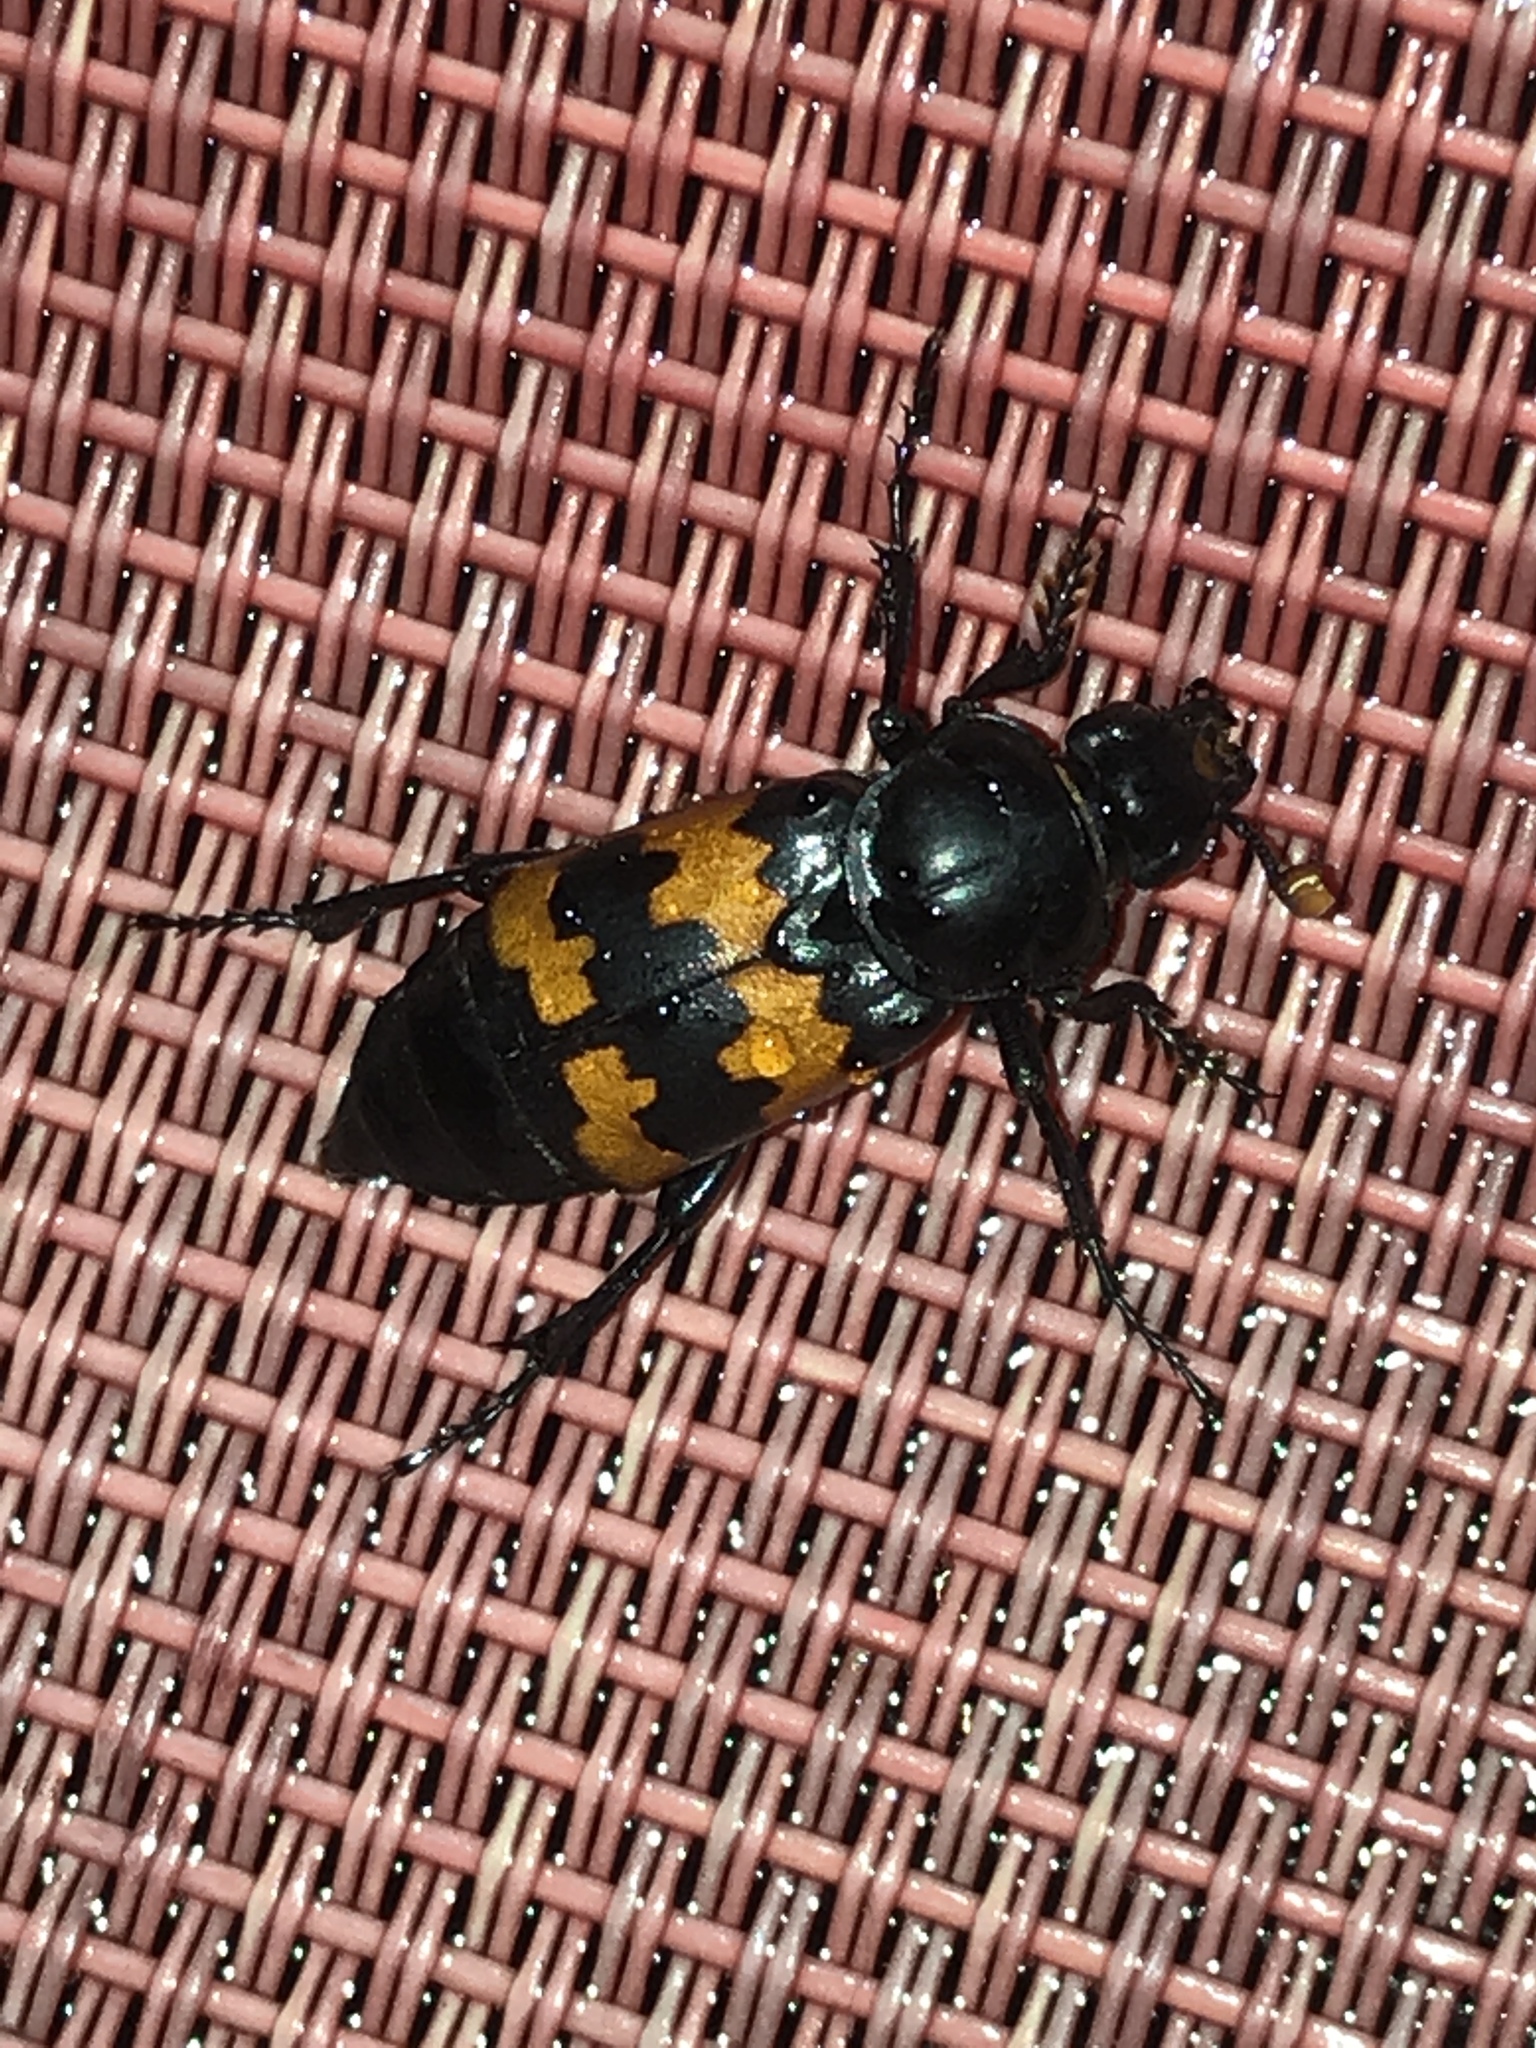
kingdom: Animalia
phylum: Arthropoda
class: Insecta
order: Coleoptera
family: Staphylinidae
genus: Nicrophorus
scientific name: Nicrophorus marginatus
